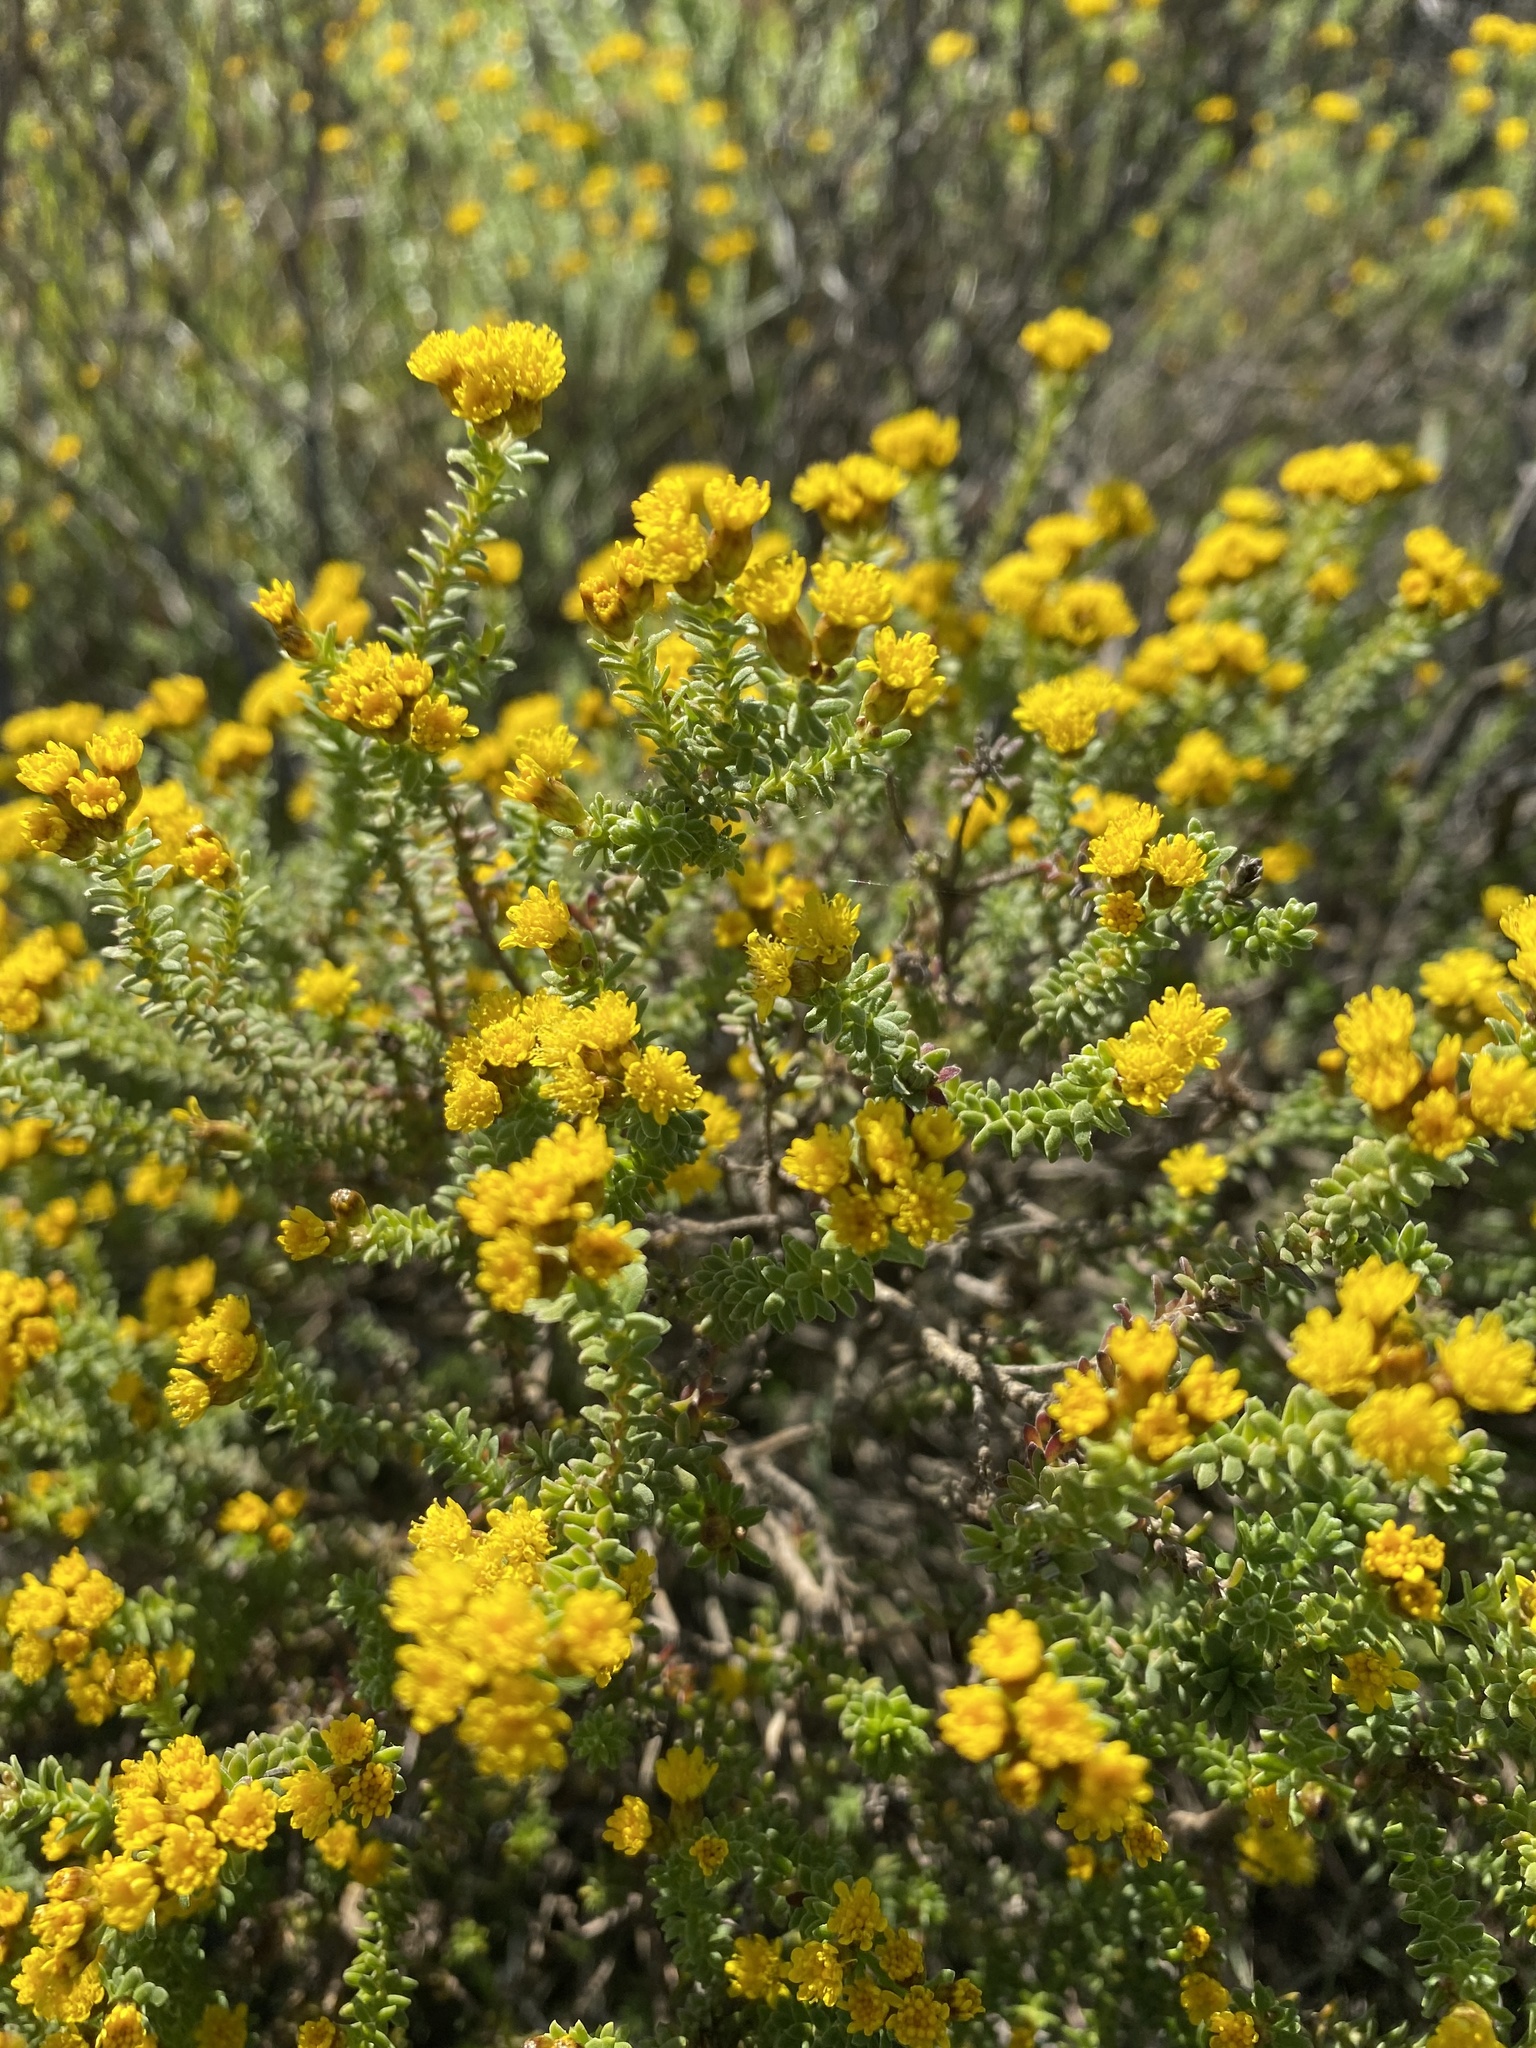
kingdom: Plantae
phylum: Tracheophyta
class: Magnoliopsida
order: Asterales
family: Asteraceae
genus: Oedera
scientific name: Oedera genistifolia
